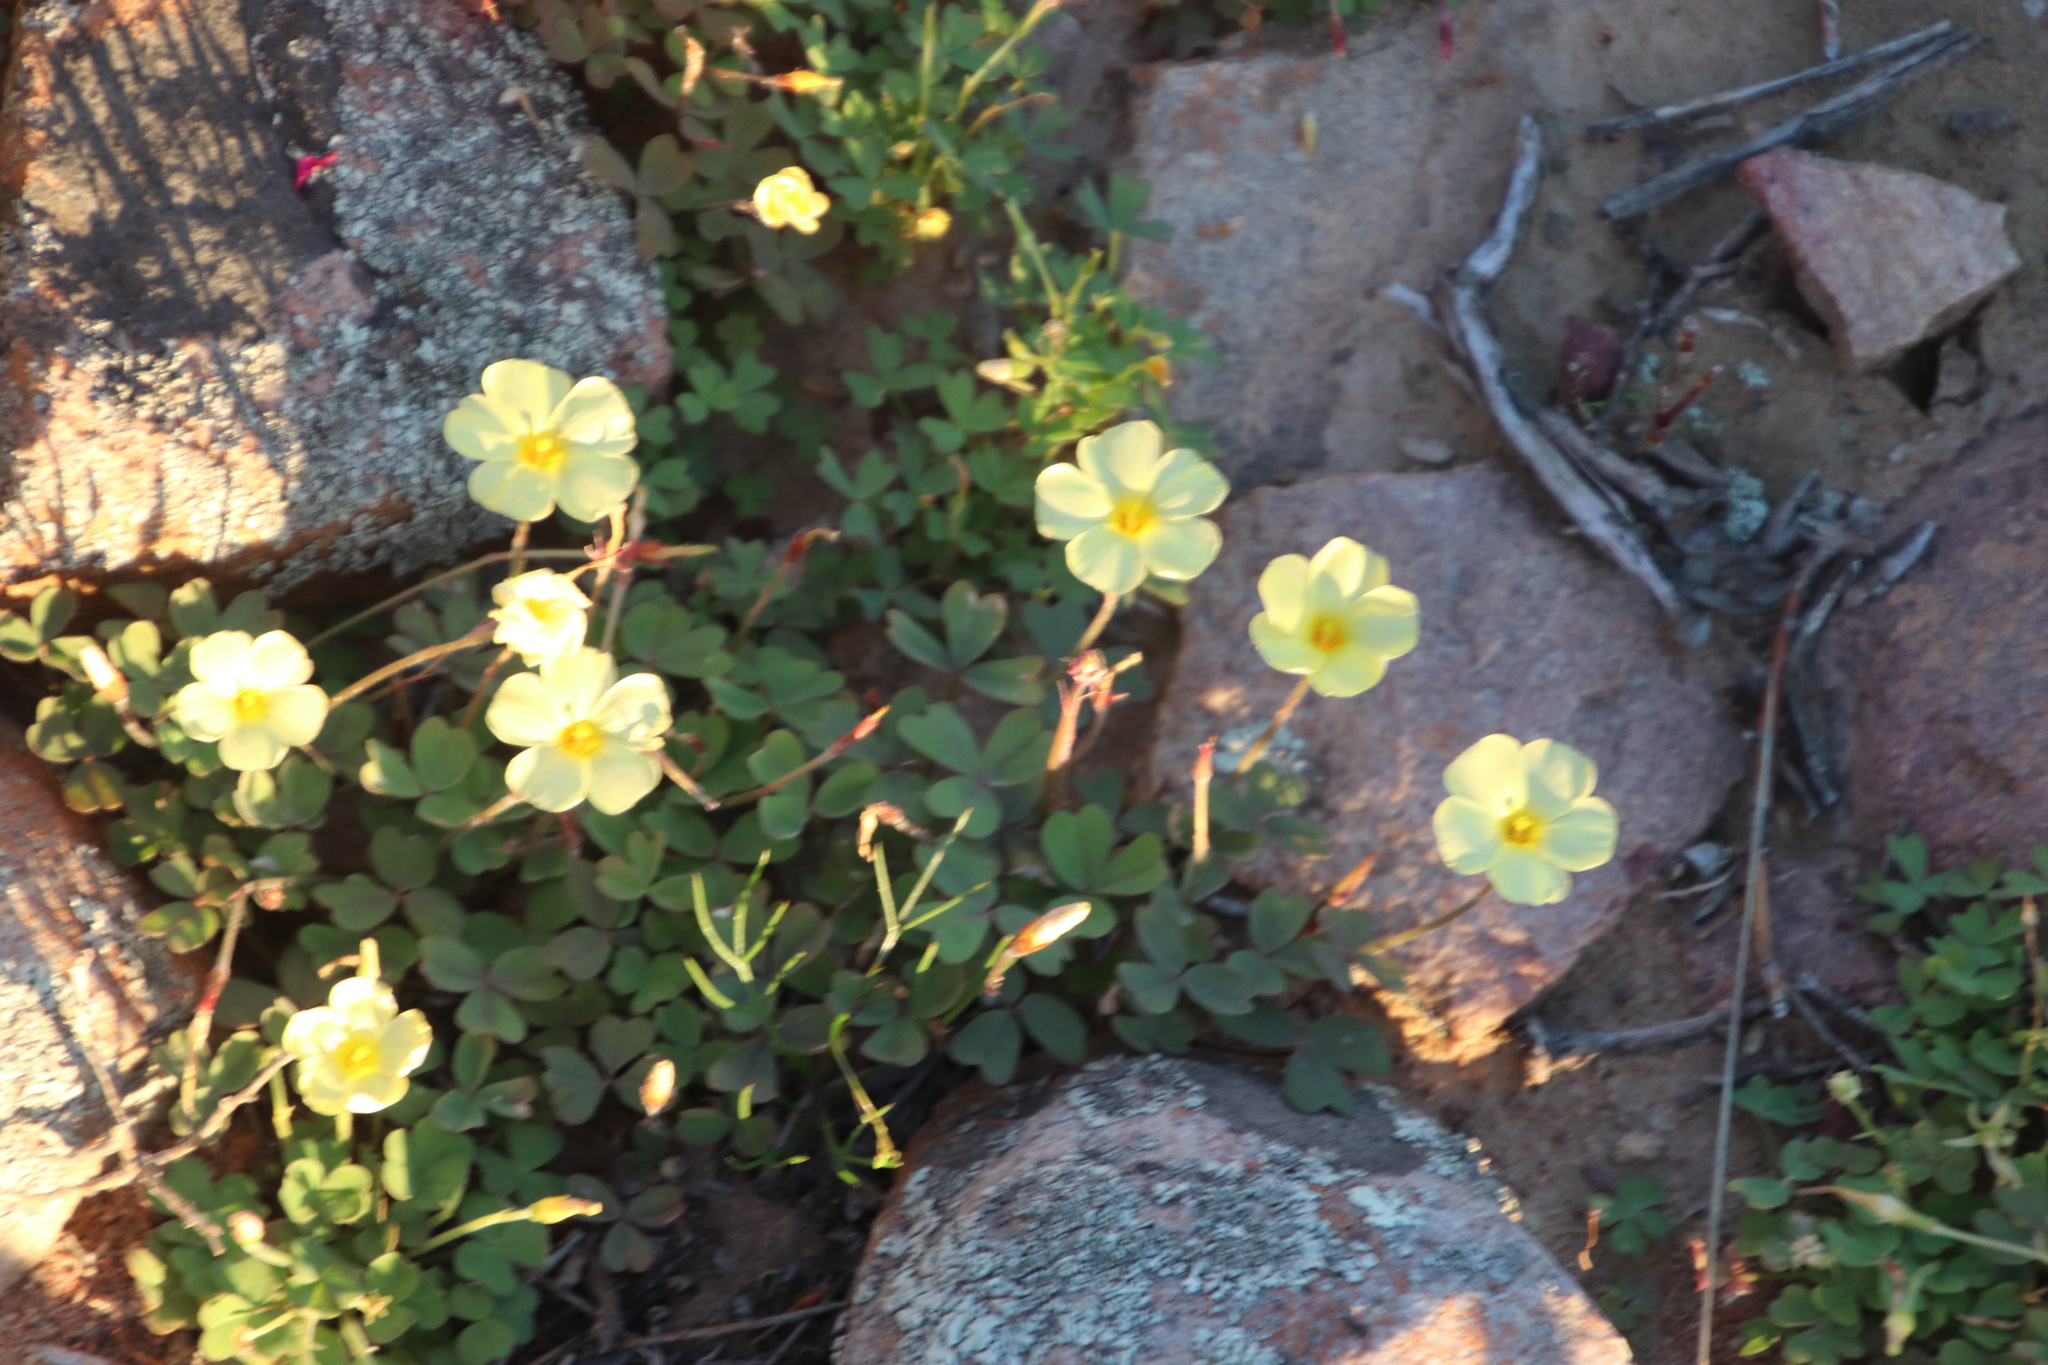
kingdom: Plantae
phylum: Tracheophyta
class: Magnoliopsida
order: Oxalidales
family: Oxalidaceae
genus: Oxalis
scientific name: Oxalis obtusa
